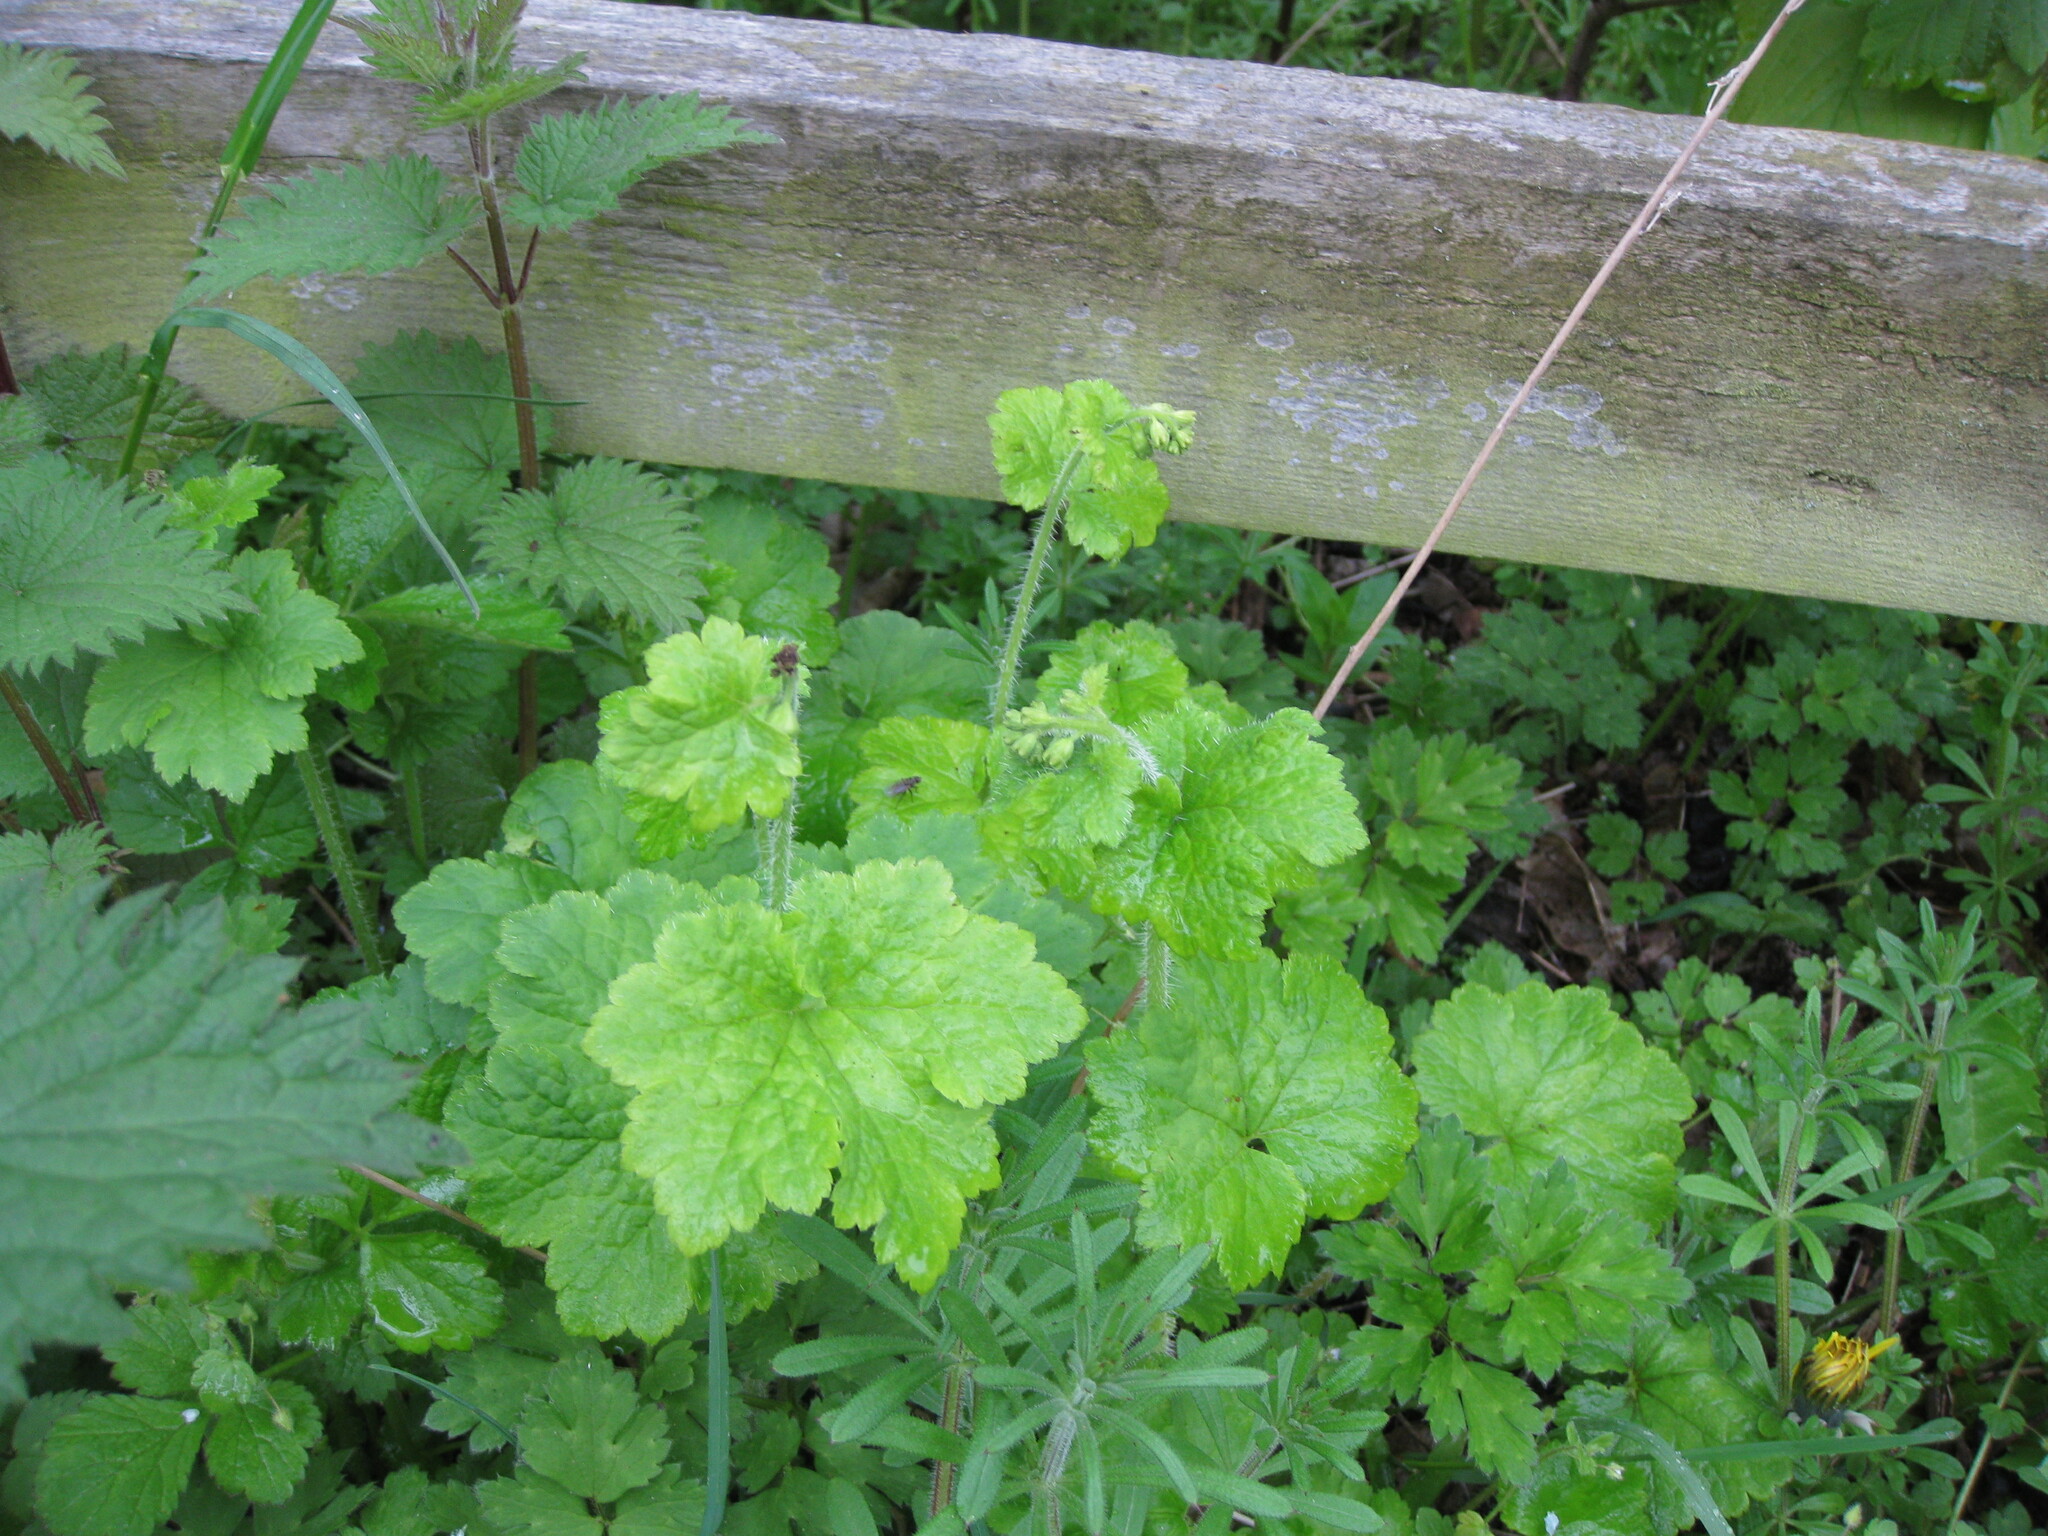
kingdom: Plantae
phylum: Tracheophyta
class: Magnoliopsida
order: Saxifragales
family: Saxifragaceae
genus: Tellima
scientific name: Tellima grandiflora
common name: Fringecups
